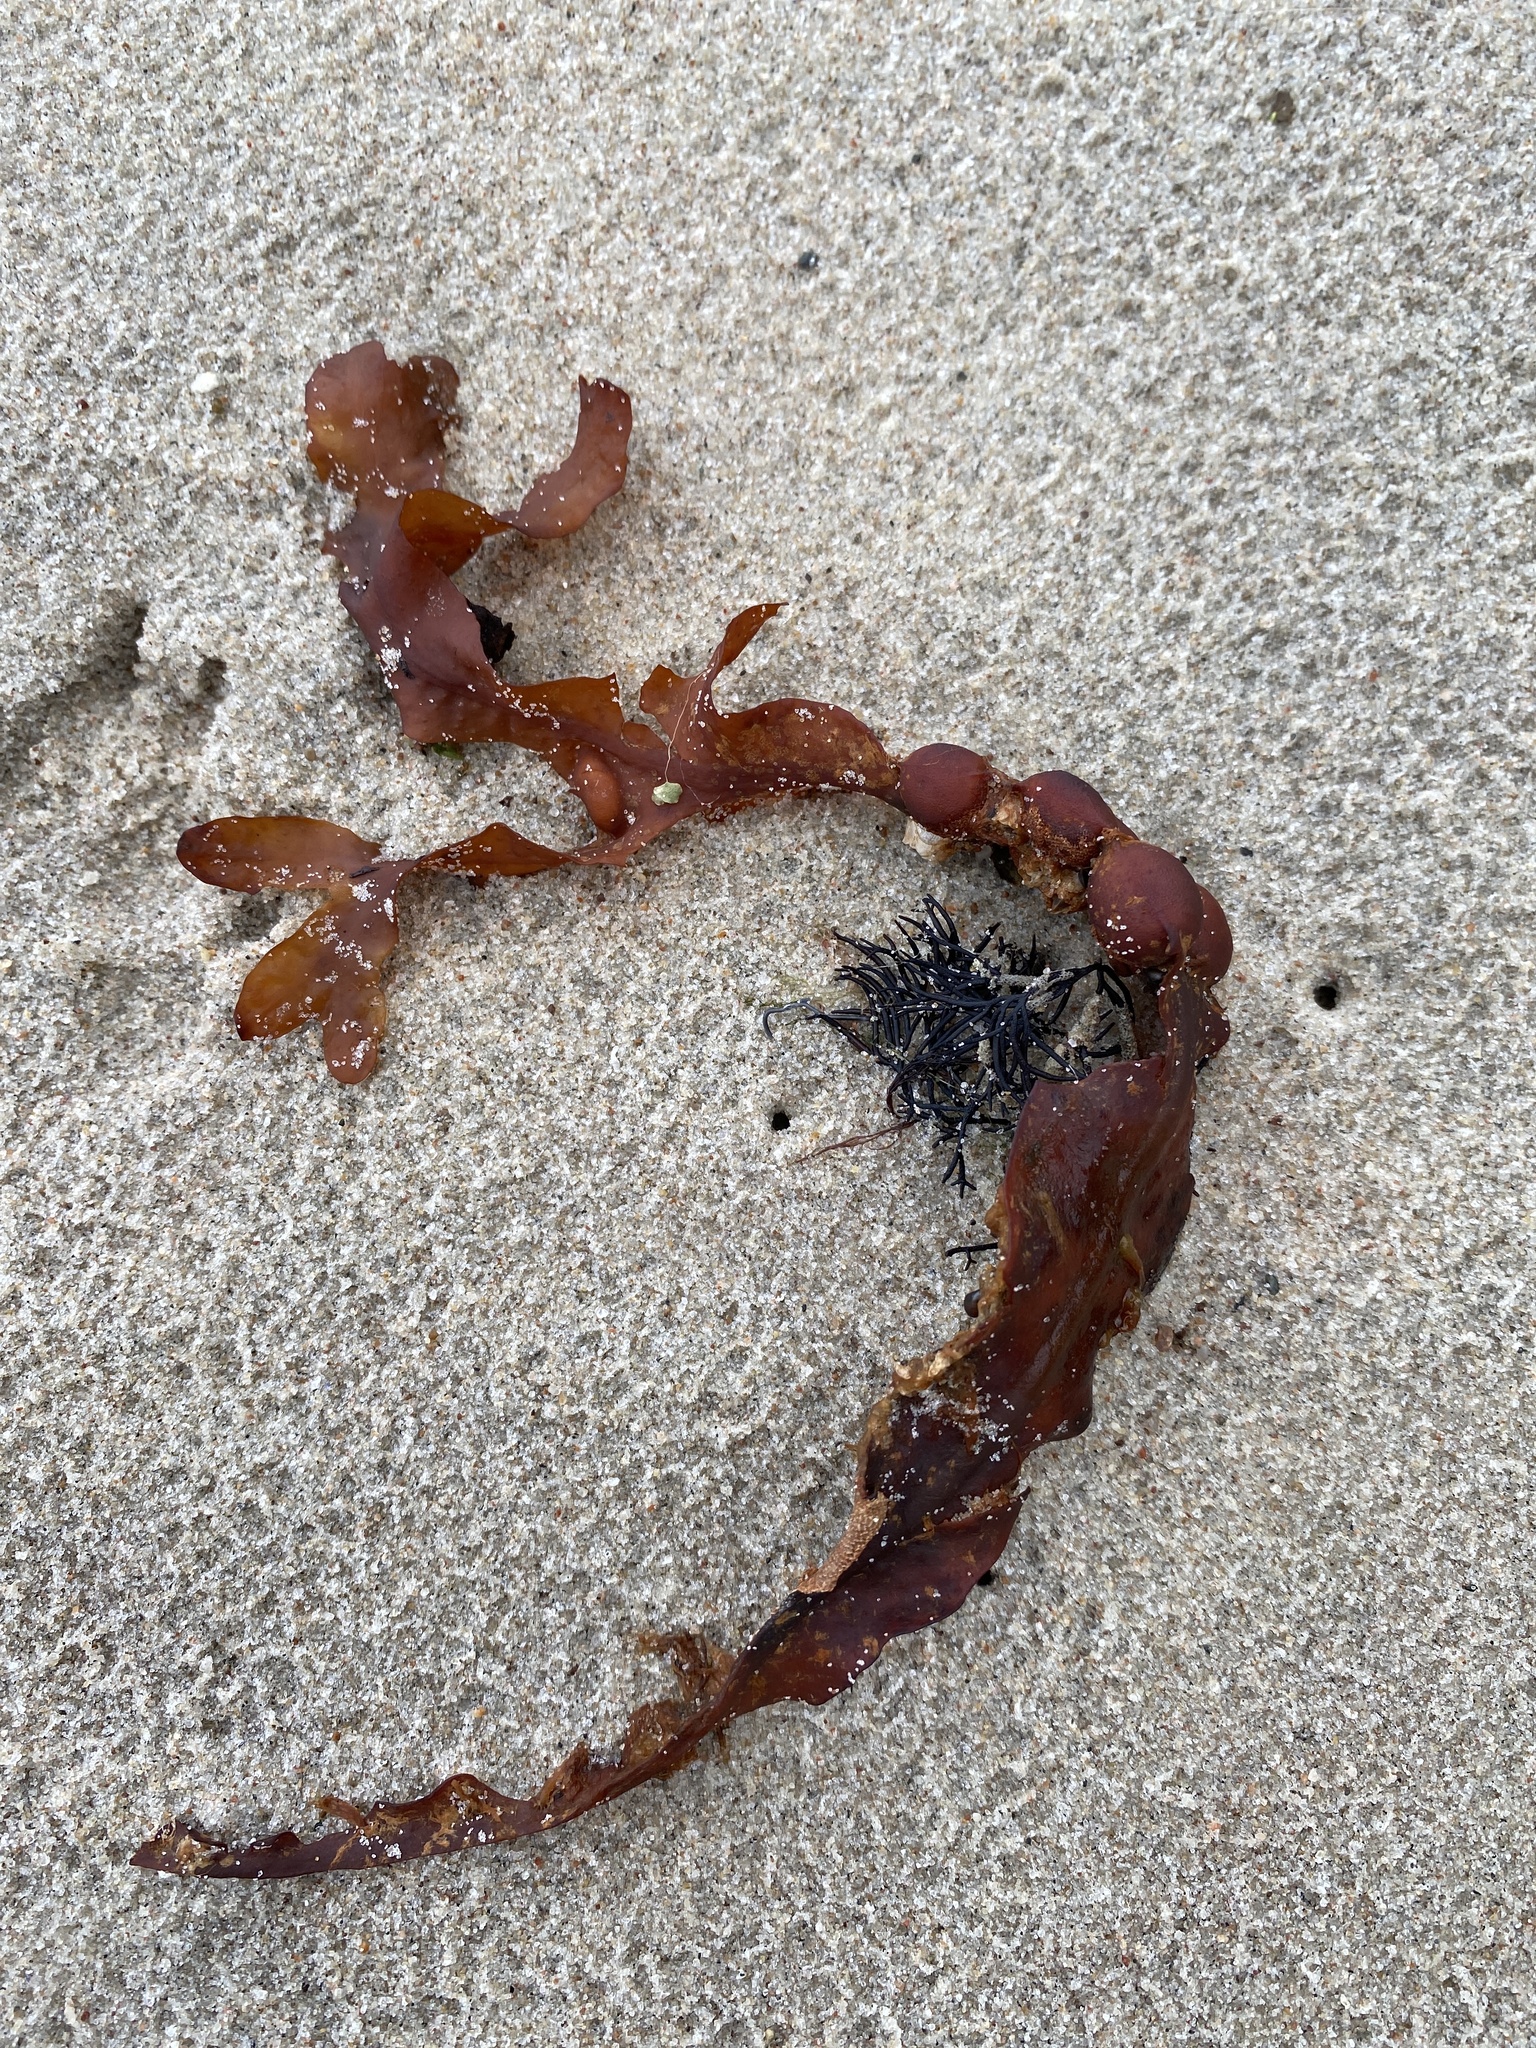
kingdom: Chromista
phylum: Ochrophyta
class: Phaeophyceae
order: Fucales
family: Fucaceae
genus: Fucus
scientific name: Fucus vesiculosus
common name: Bladder wrack
